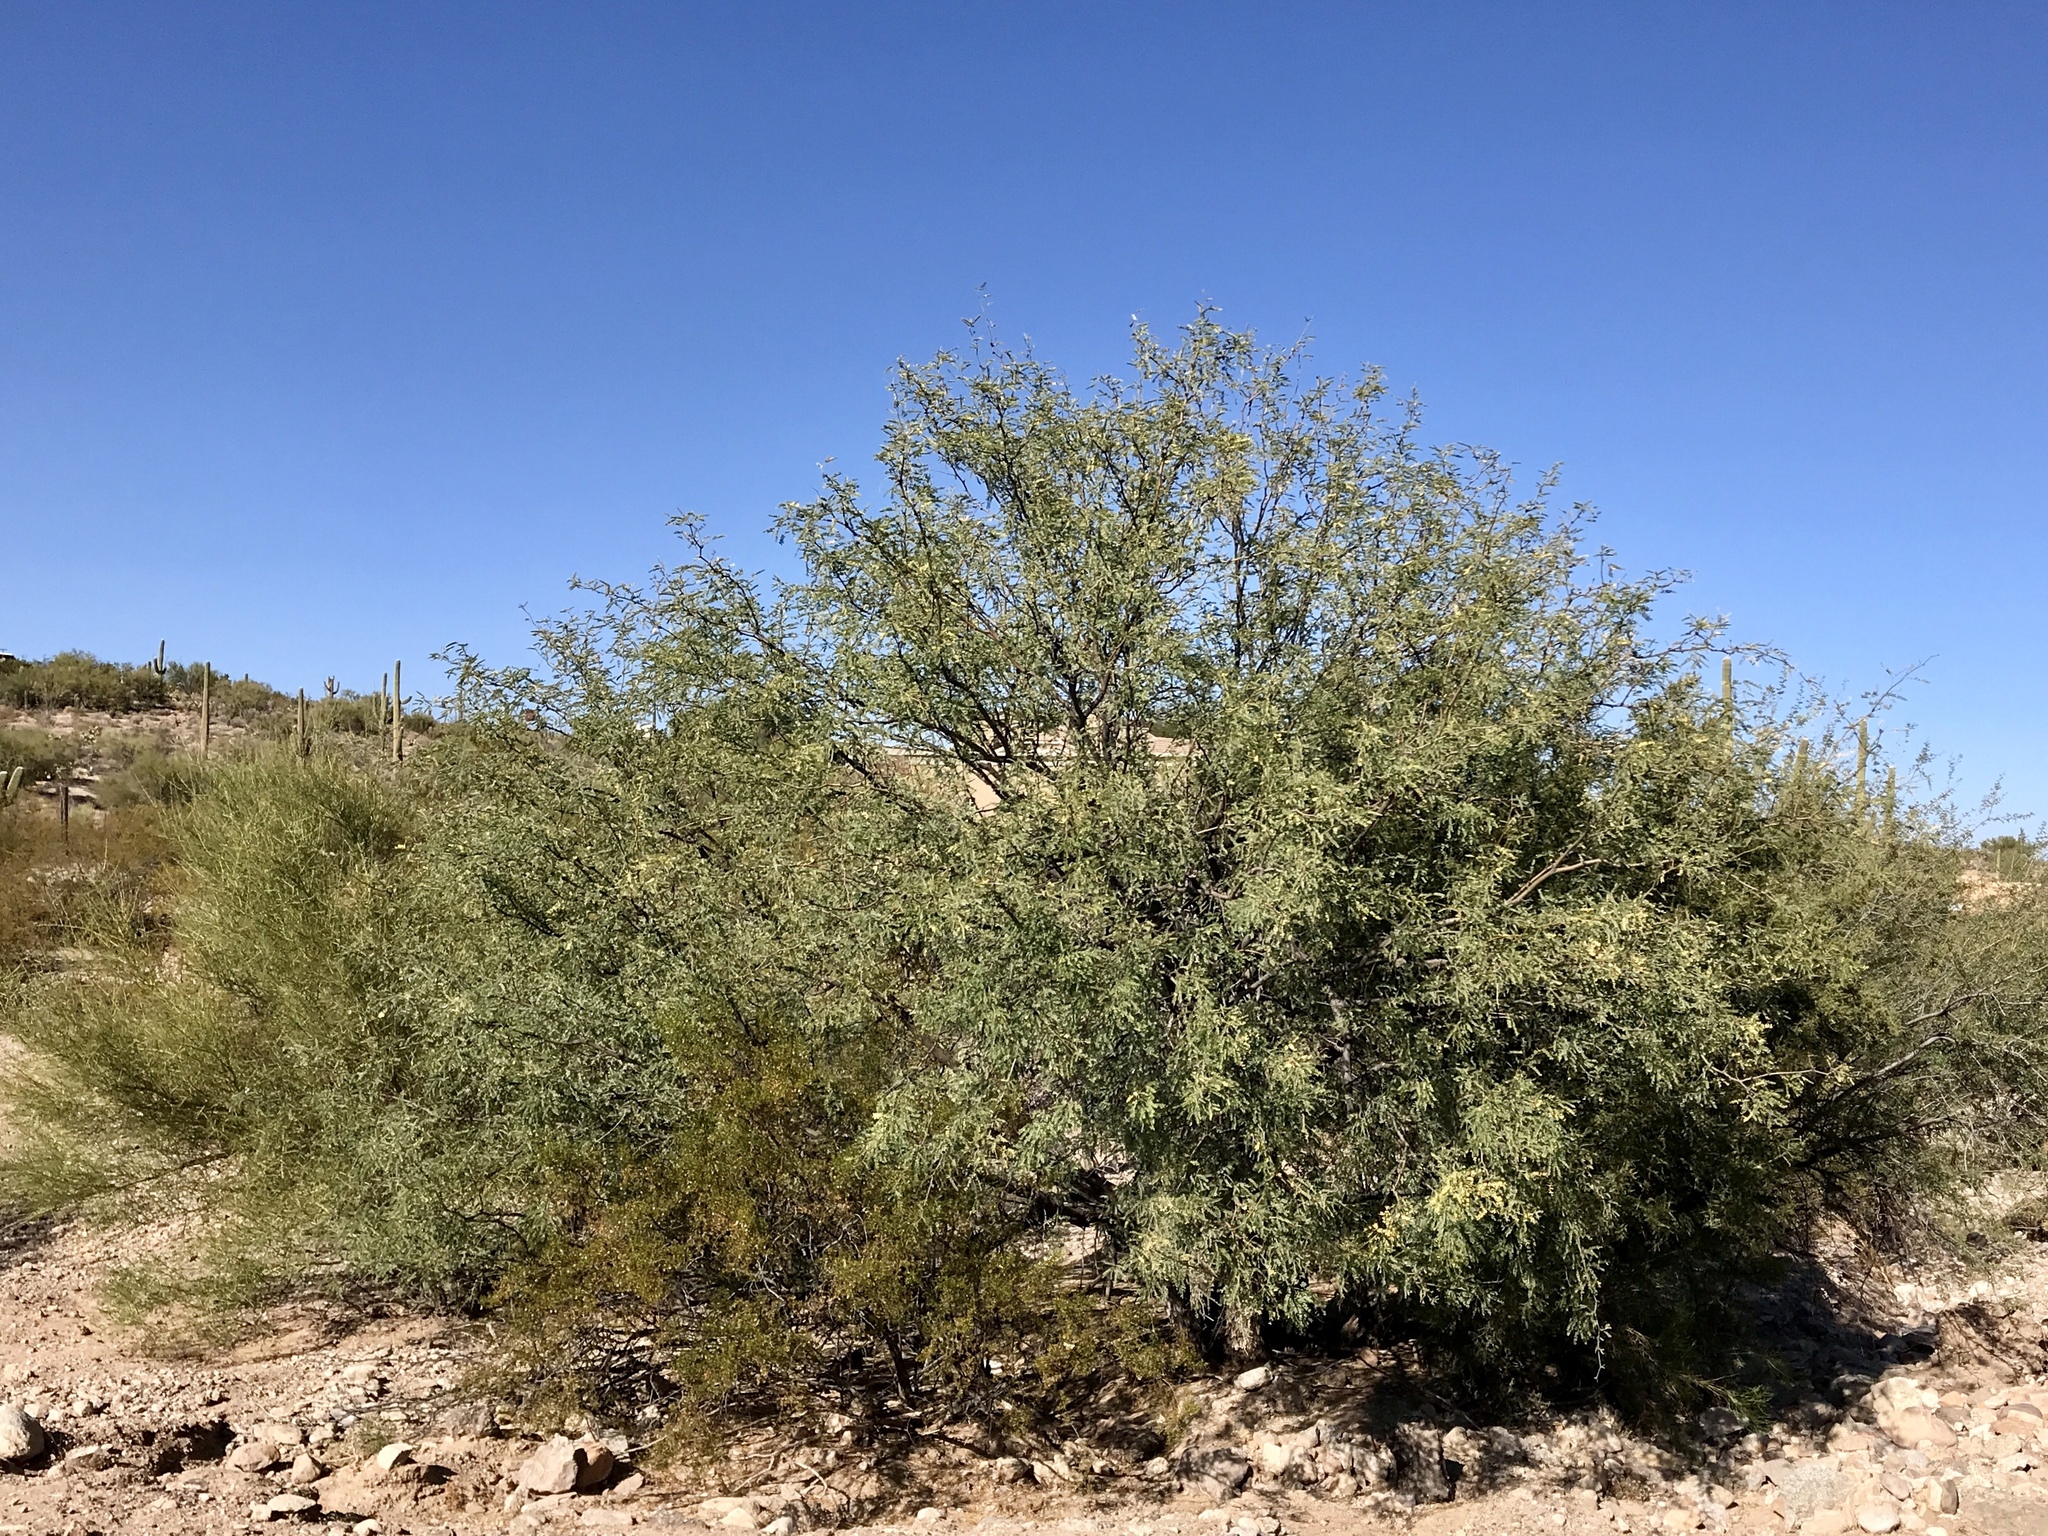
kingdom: Plantae
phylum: Tracheophyta
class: Magnoliopsida
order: Fabales
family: Fabaceae
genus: Prosopis
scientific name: Prosopis velutina
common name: Velvet mesquite
